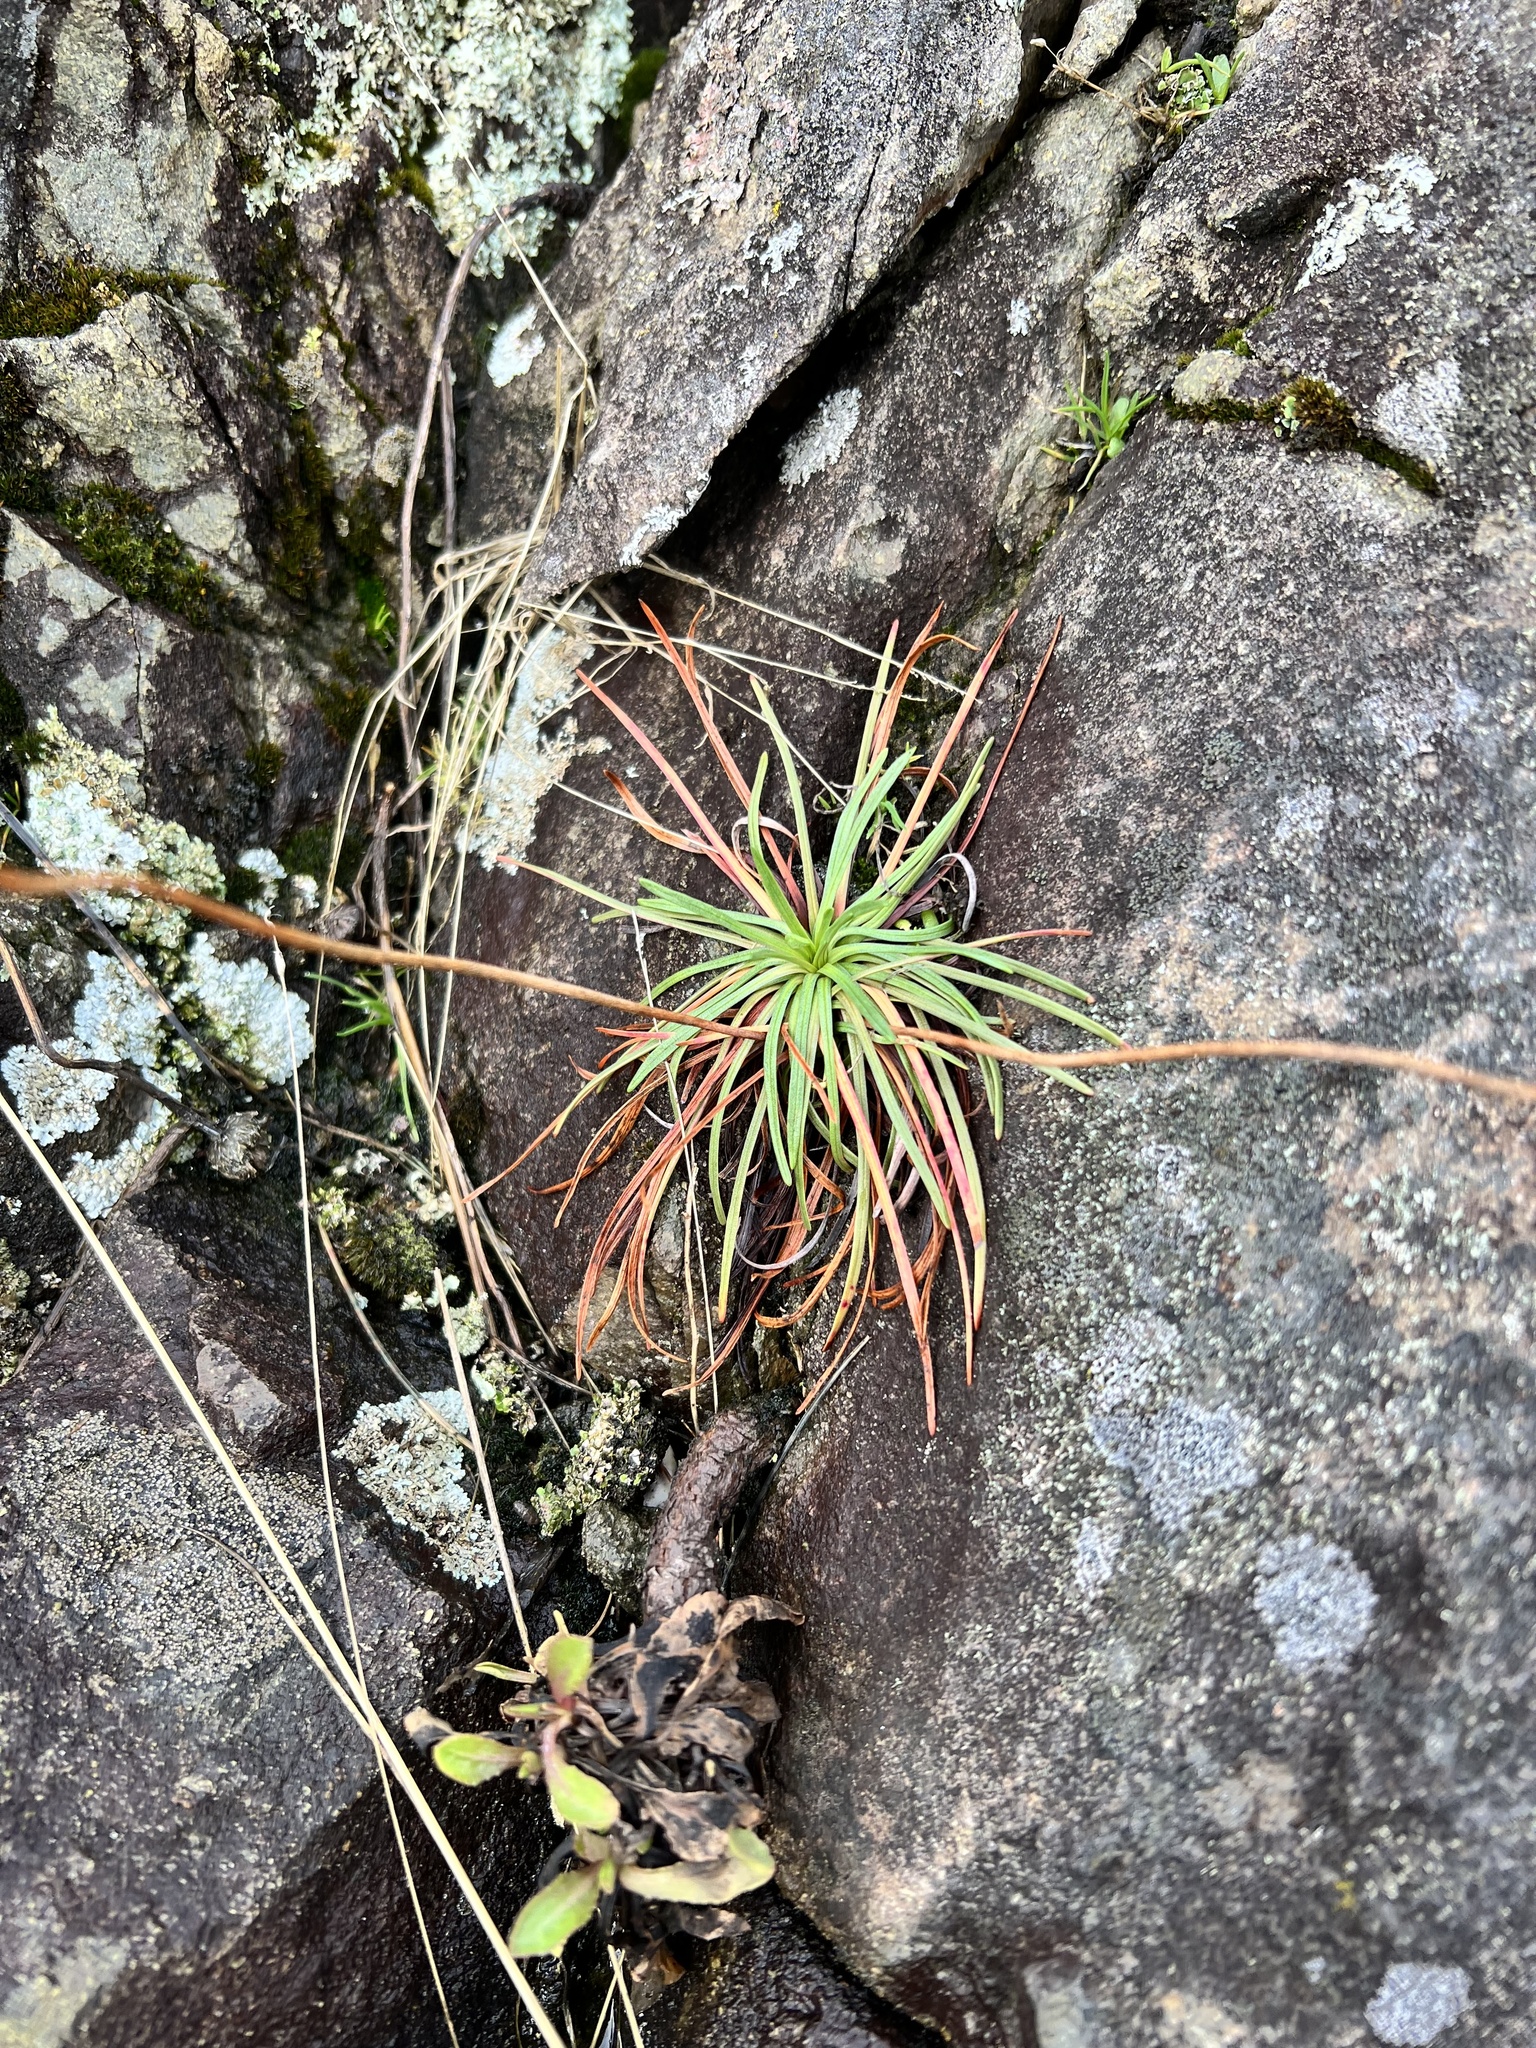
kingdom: Plantae
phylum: Tracheophyta
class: Magnoliopsida
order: Caryophyllales
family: Plumbaginaceae
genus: Armeria
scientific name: Armeria maritima
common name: Thrift
